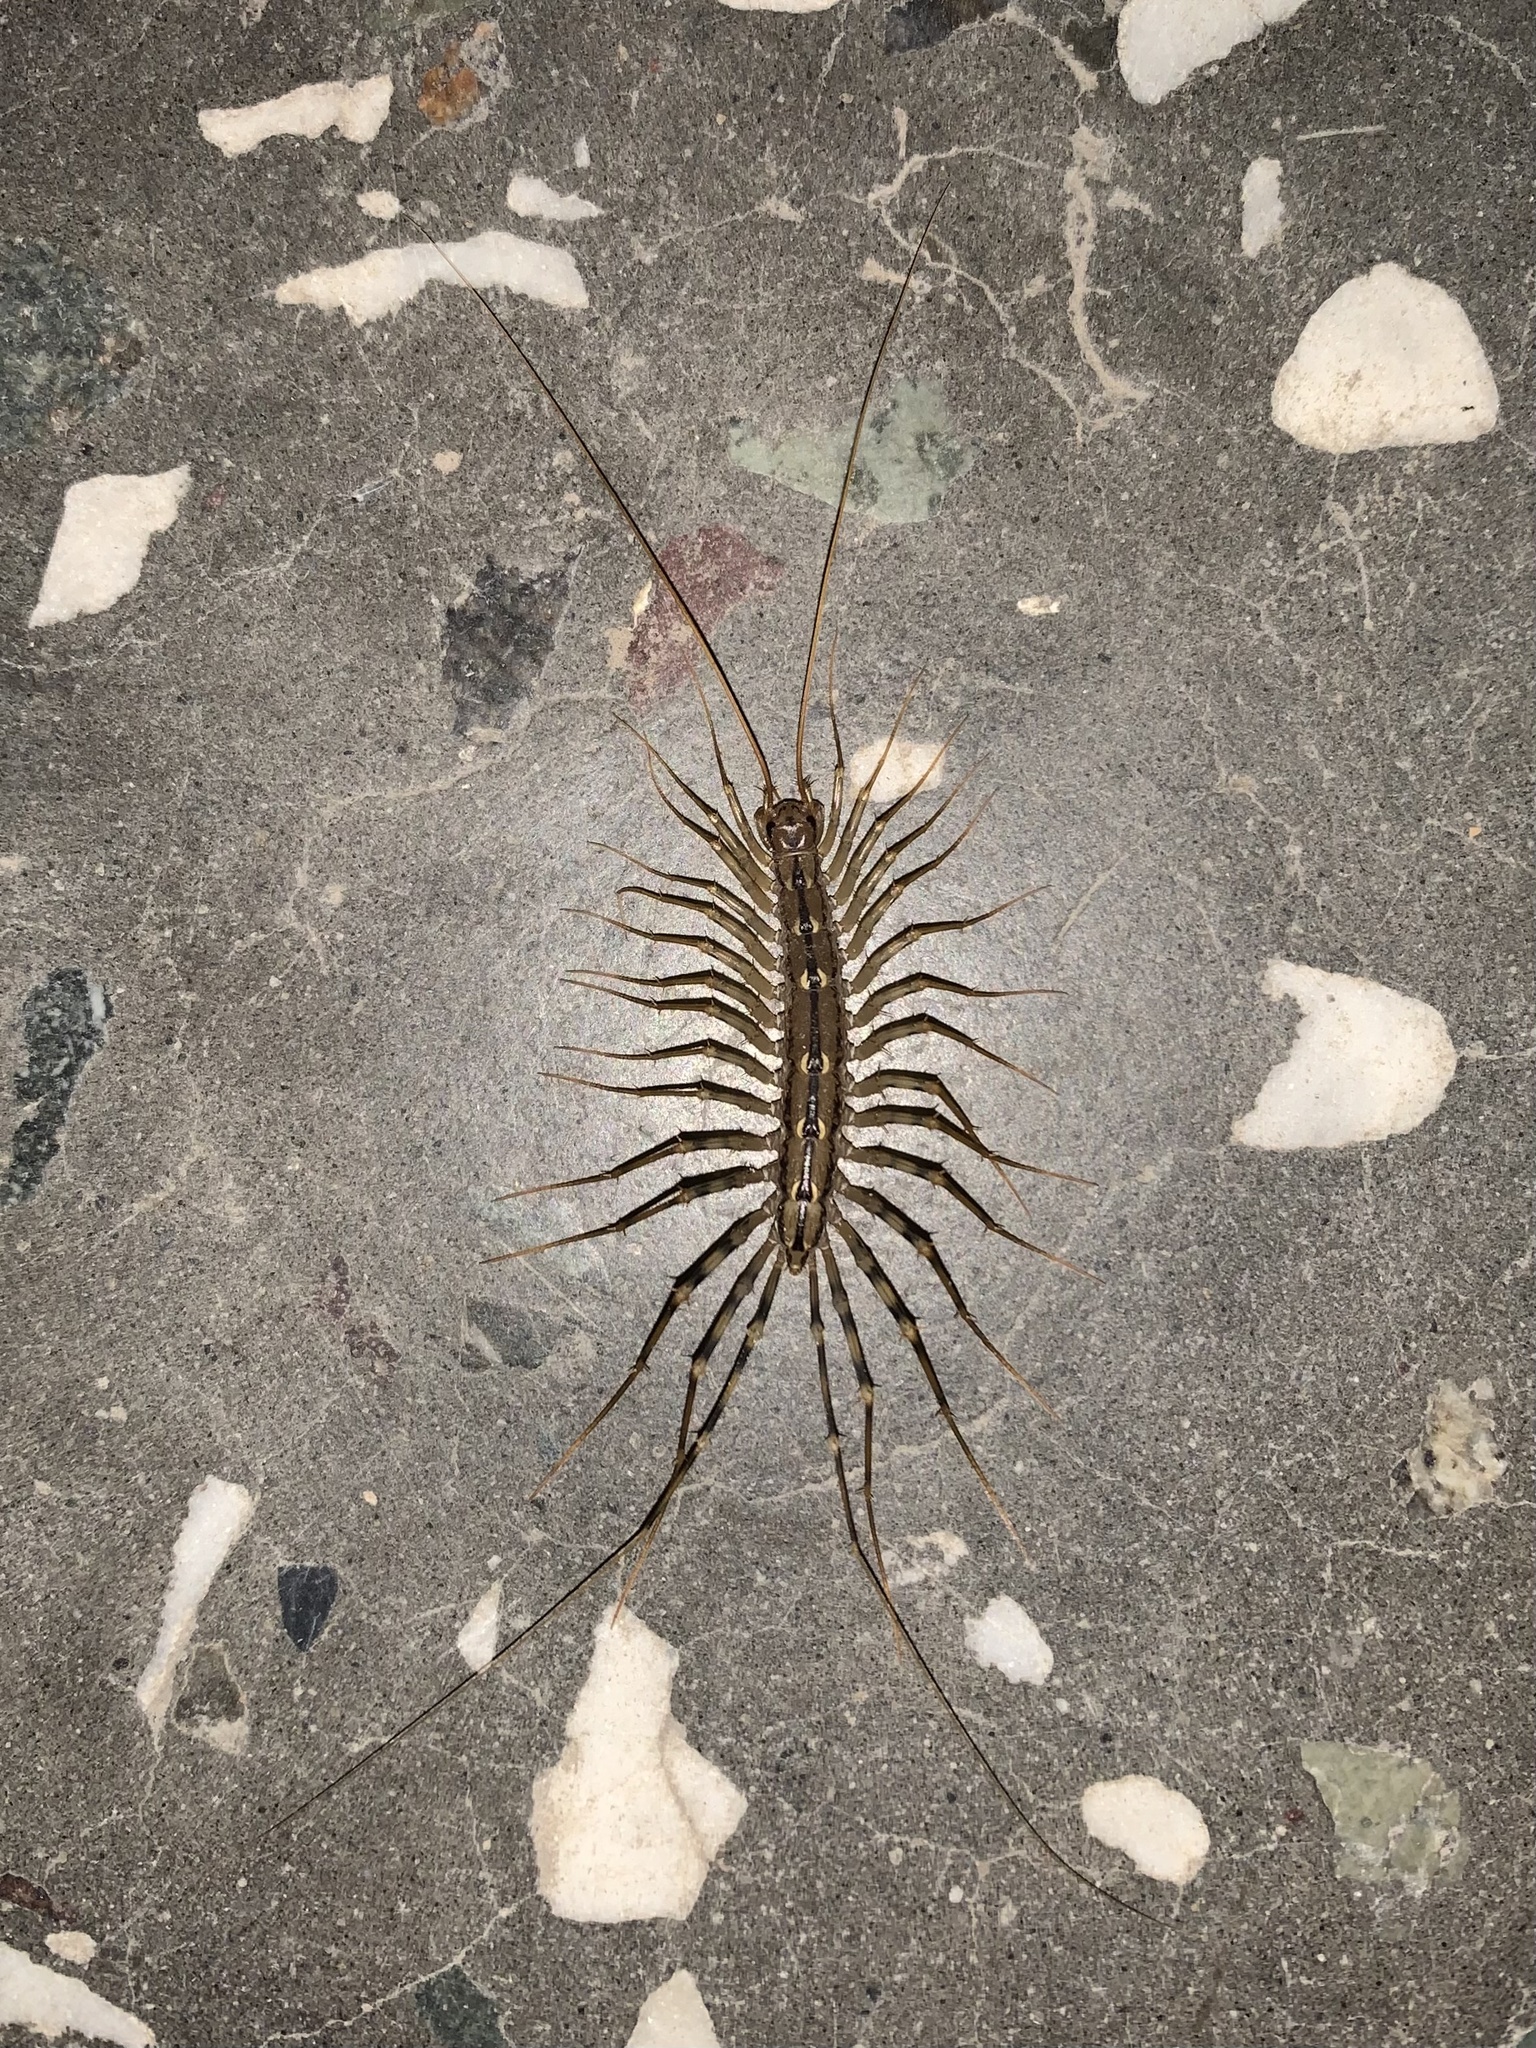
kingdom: Animalia
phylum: Arthropoda
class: Chilopoda
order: Scutigeromorpha
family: Scutigeridae
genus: Scutigera
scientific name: Scutigera coleoptrata
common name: House centipede
